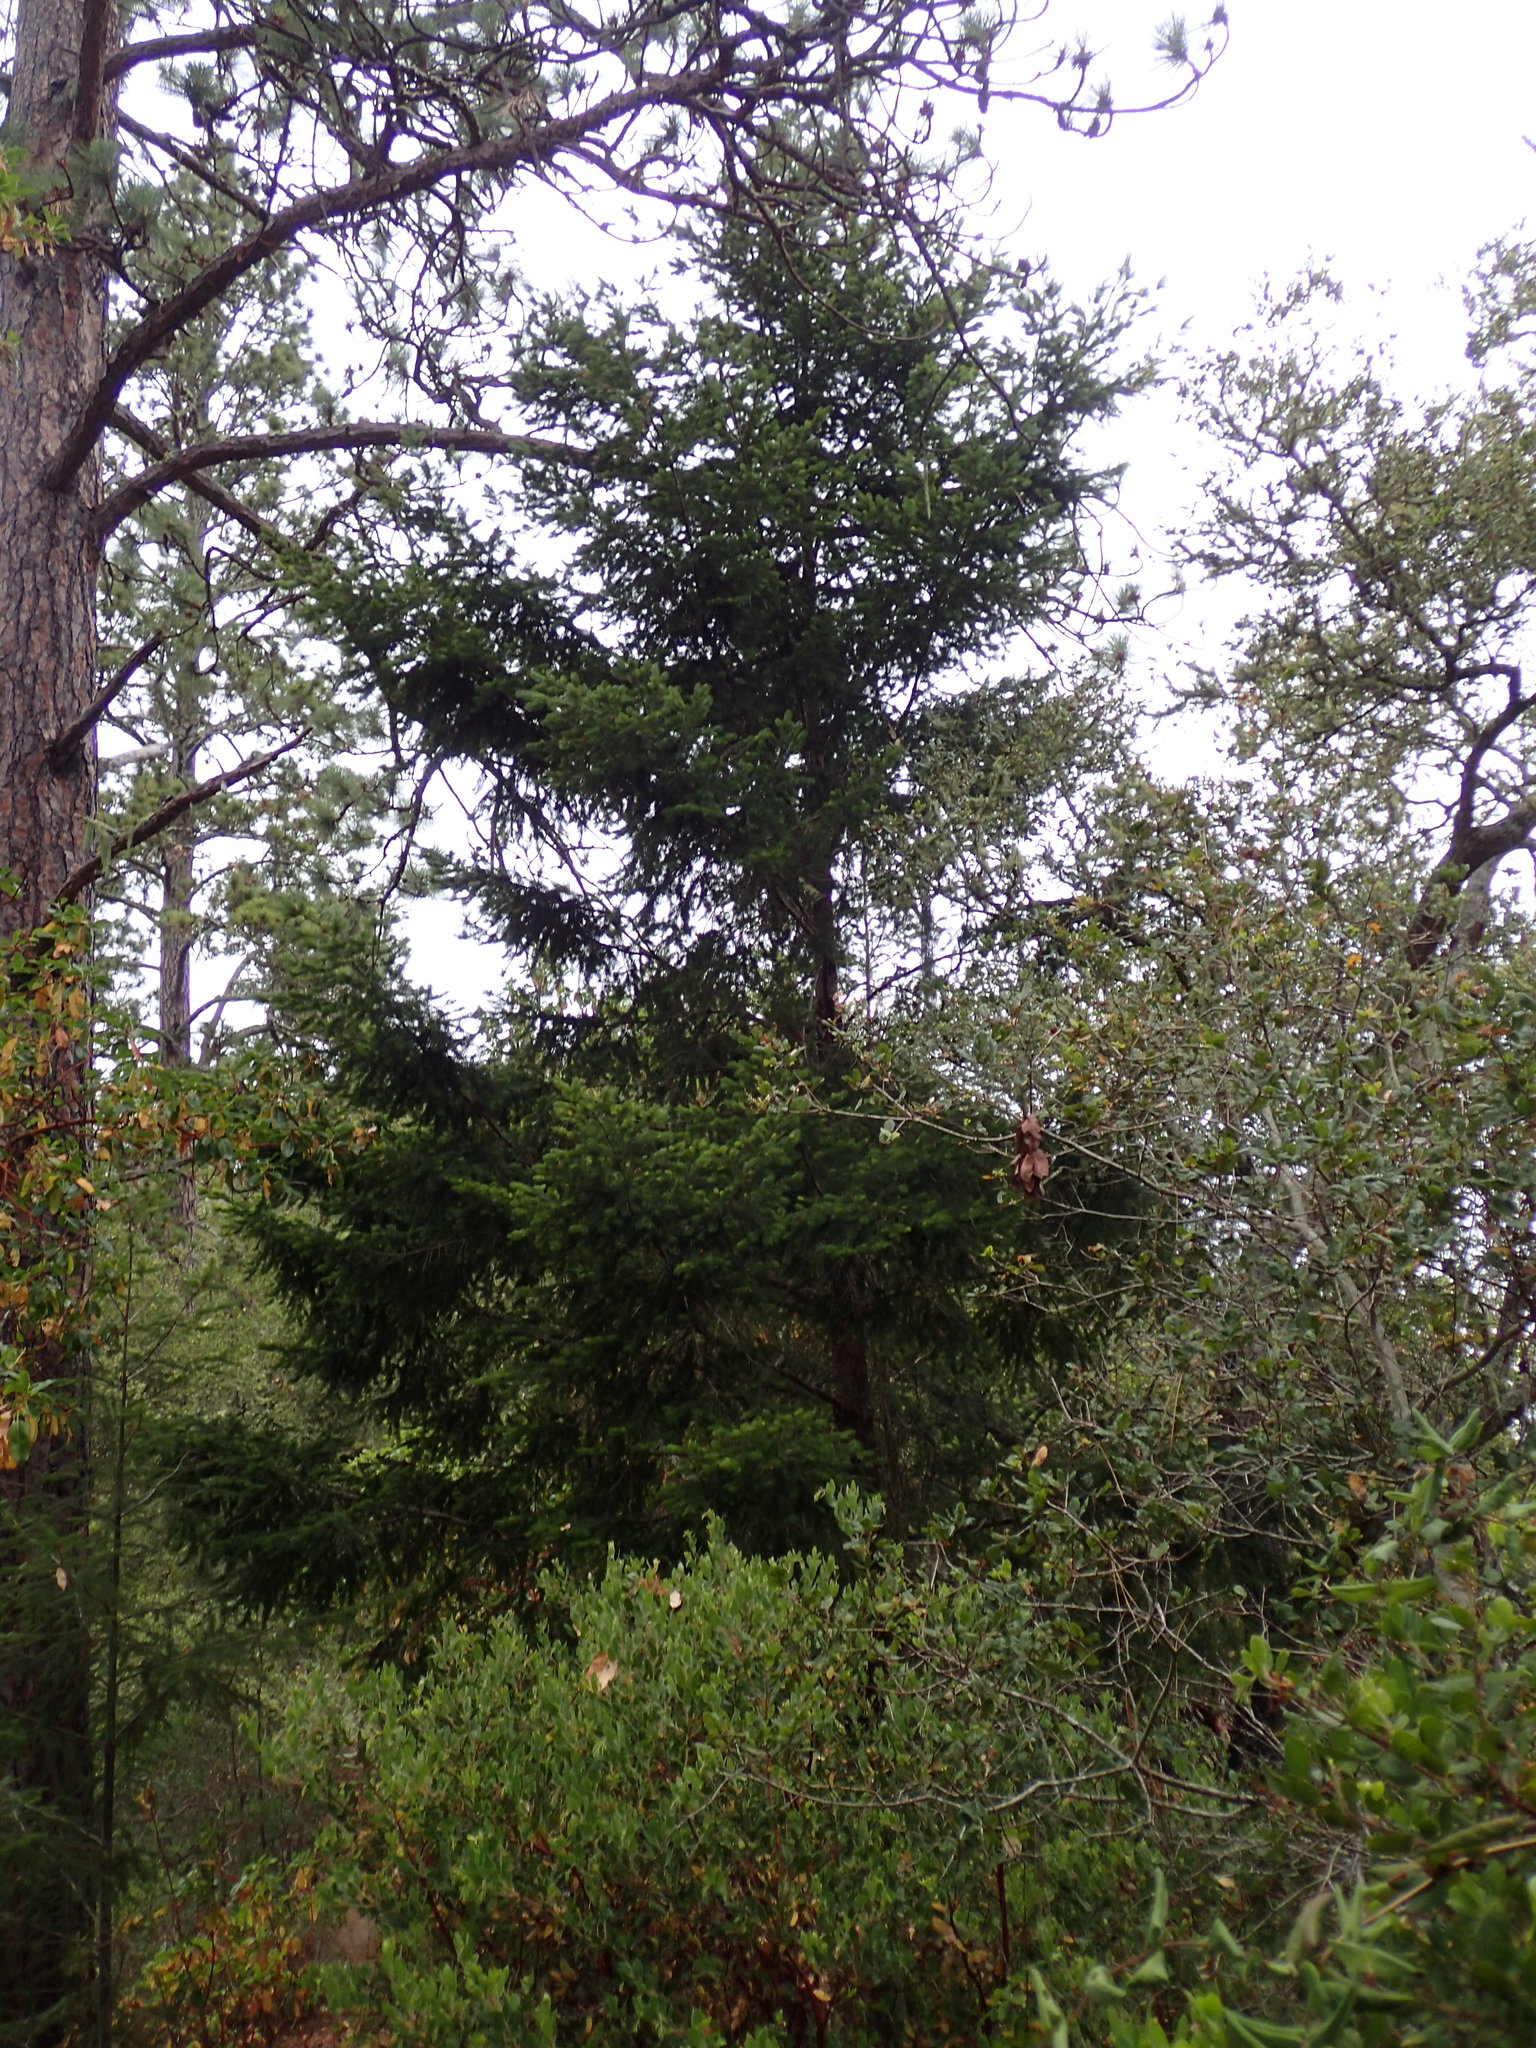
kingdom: Plantae
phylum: Tracheophyta
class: Pinopsida
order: Pinales
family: Pinaceae
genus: Pseudotsuga
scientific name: Pseudotsuga menziesii
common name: Douglas fir
